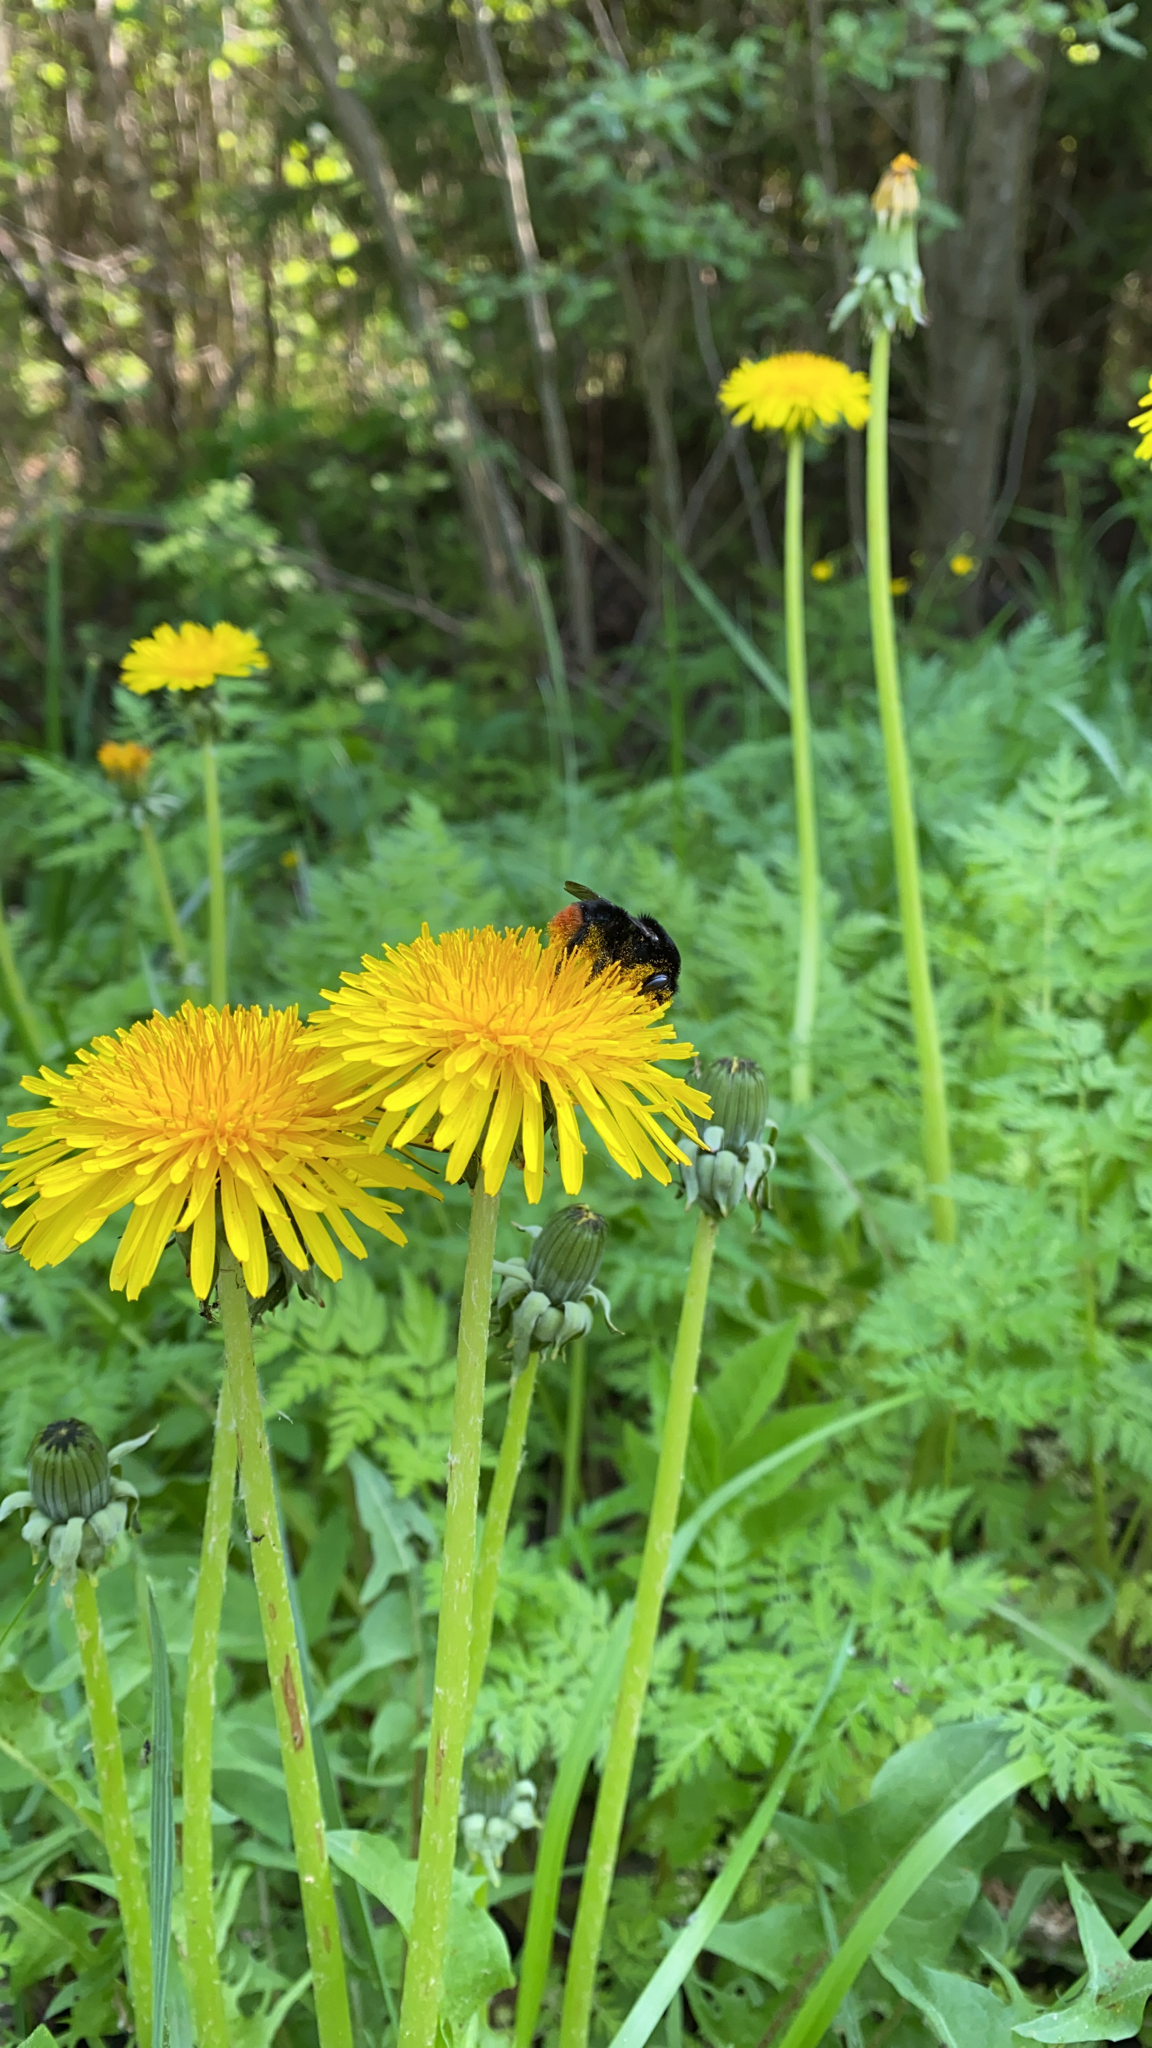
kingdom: Animalia
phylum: Arthropoda
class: Insecta
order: Hymenoptera
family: Apidae
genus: Bombus
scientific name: Bombus lapidarius
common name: Large red-tailed humble-bee
